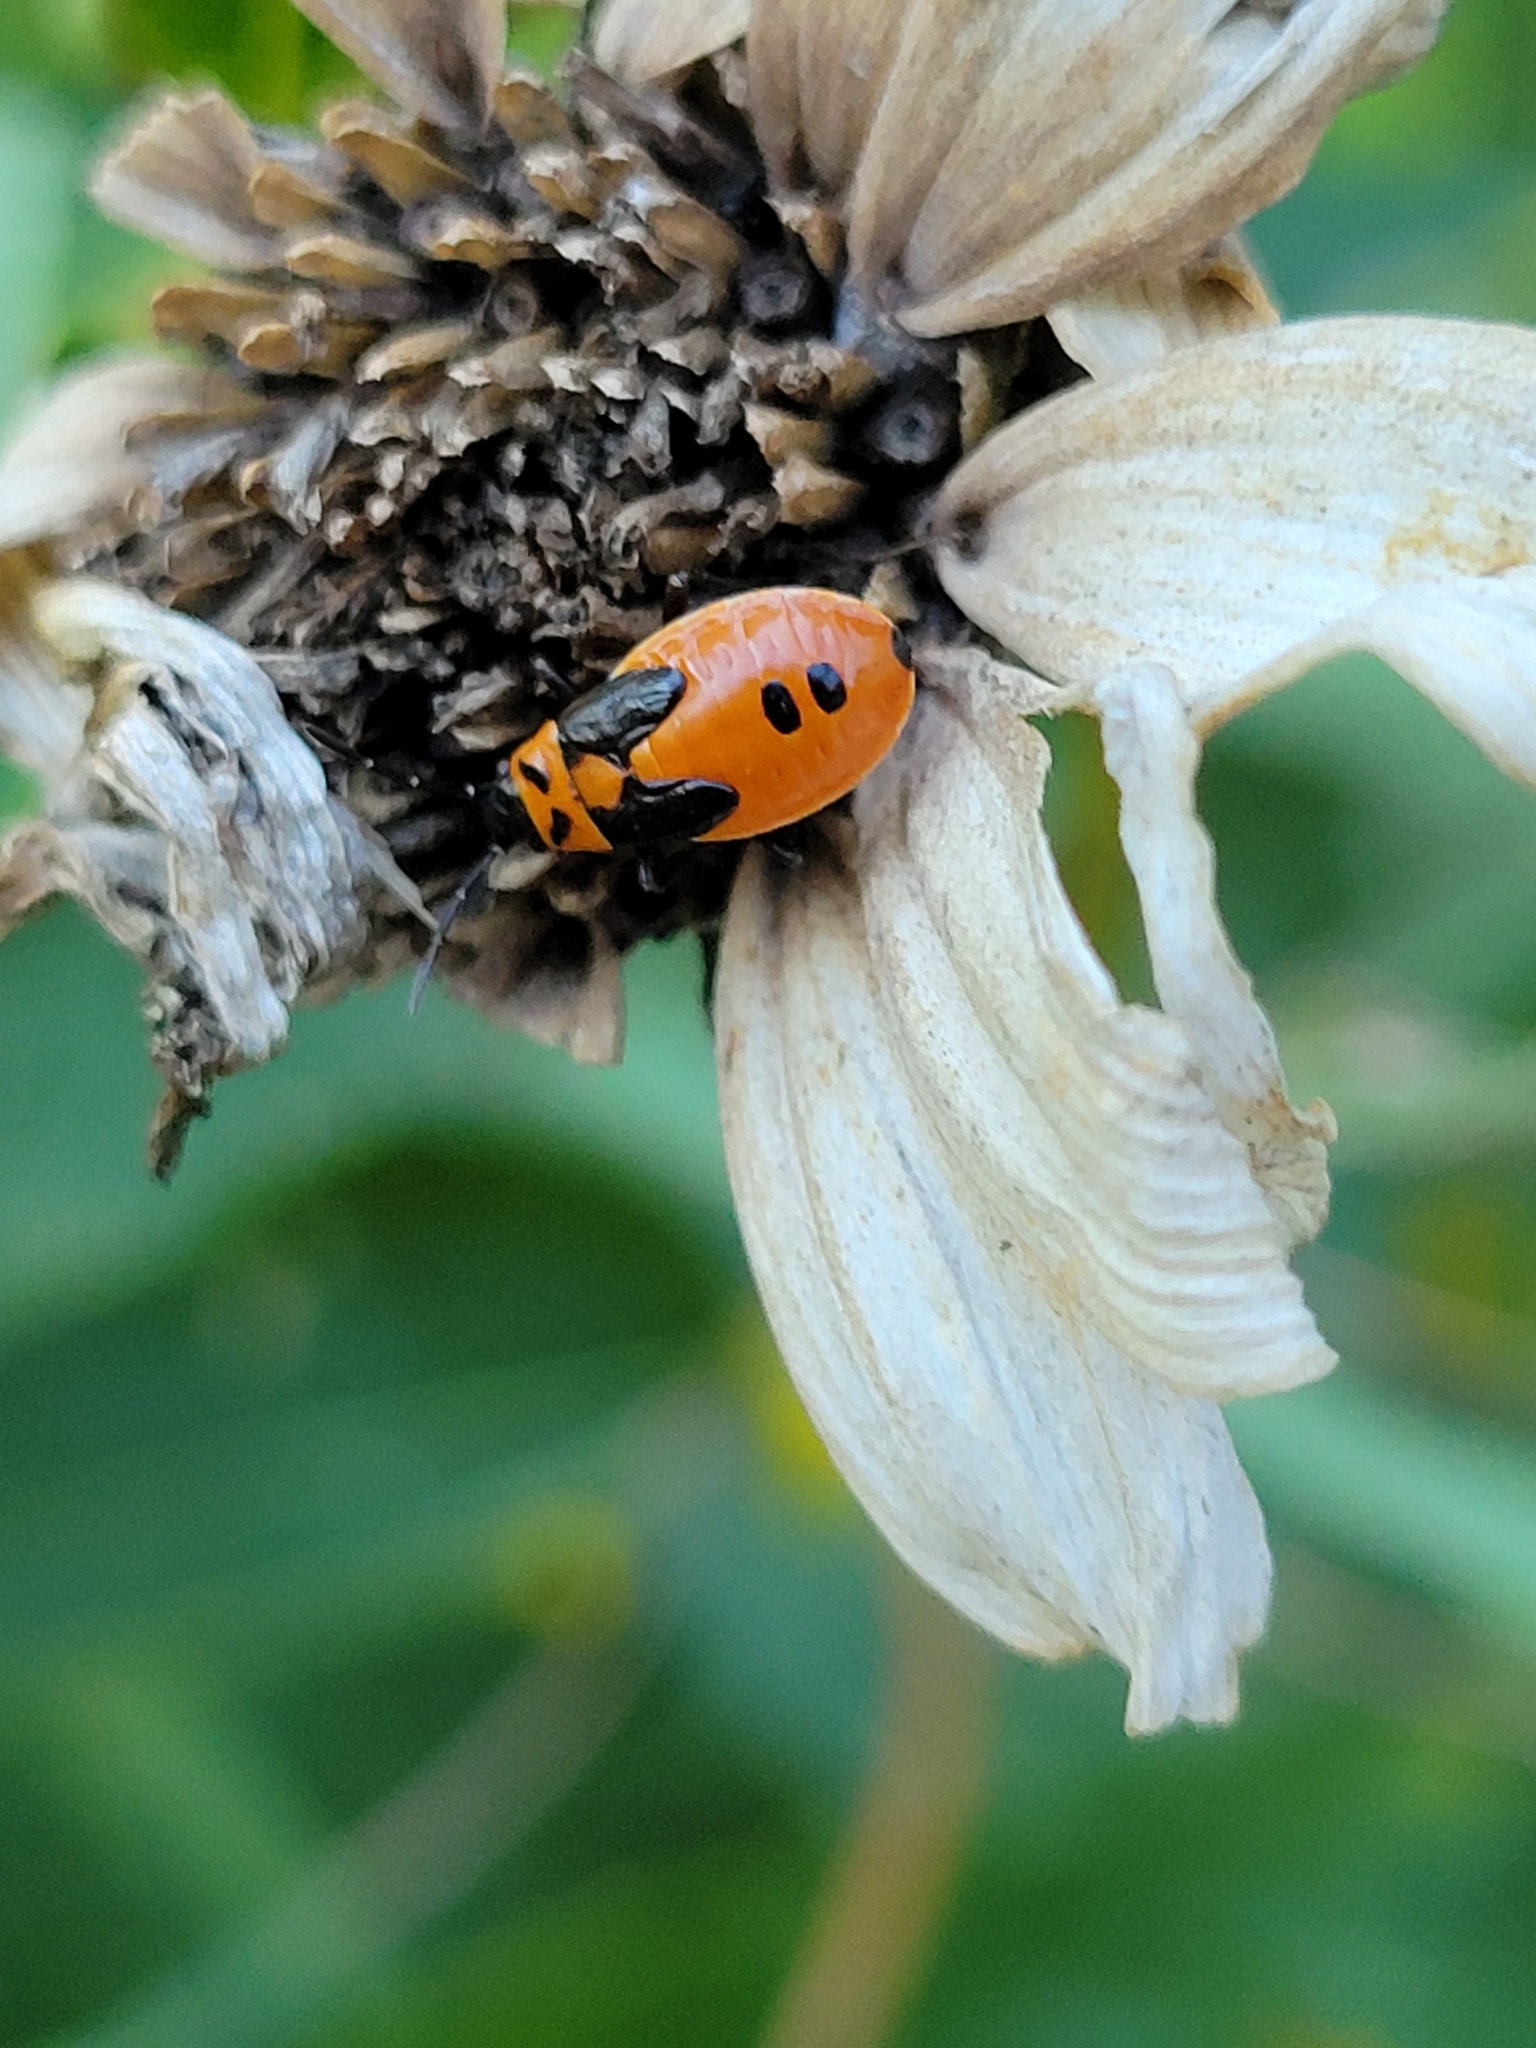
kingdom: Animalia
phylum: Arthropoda
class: Insecta
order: Hemiptera
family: Lygaeidae
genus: Lygaeus
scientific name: Lygaeus turcicus
